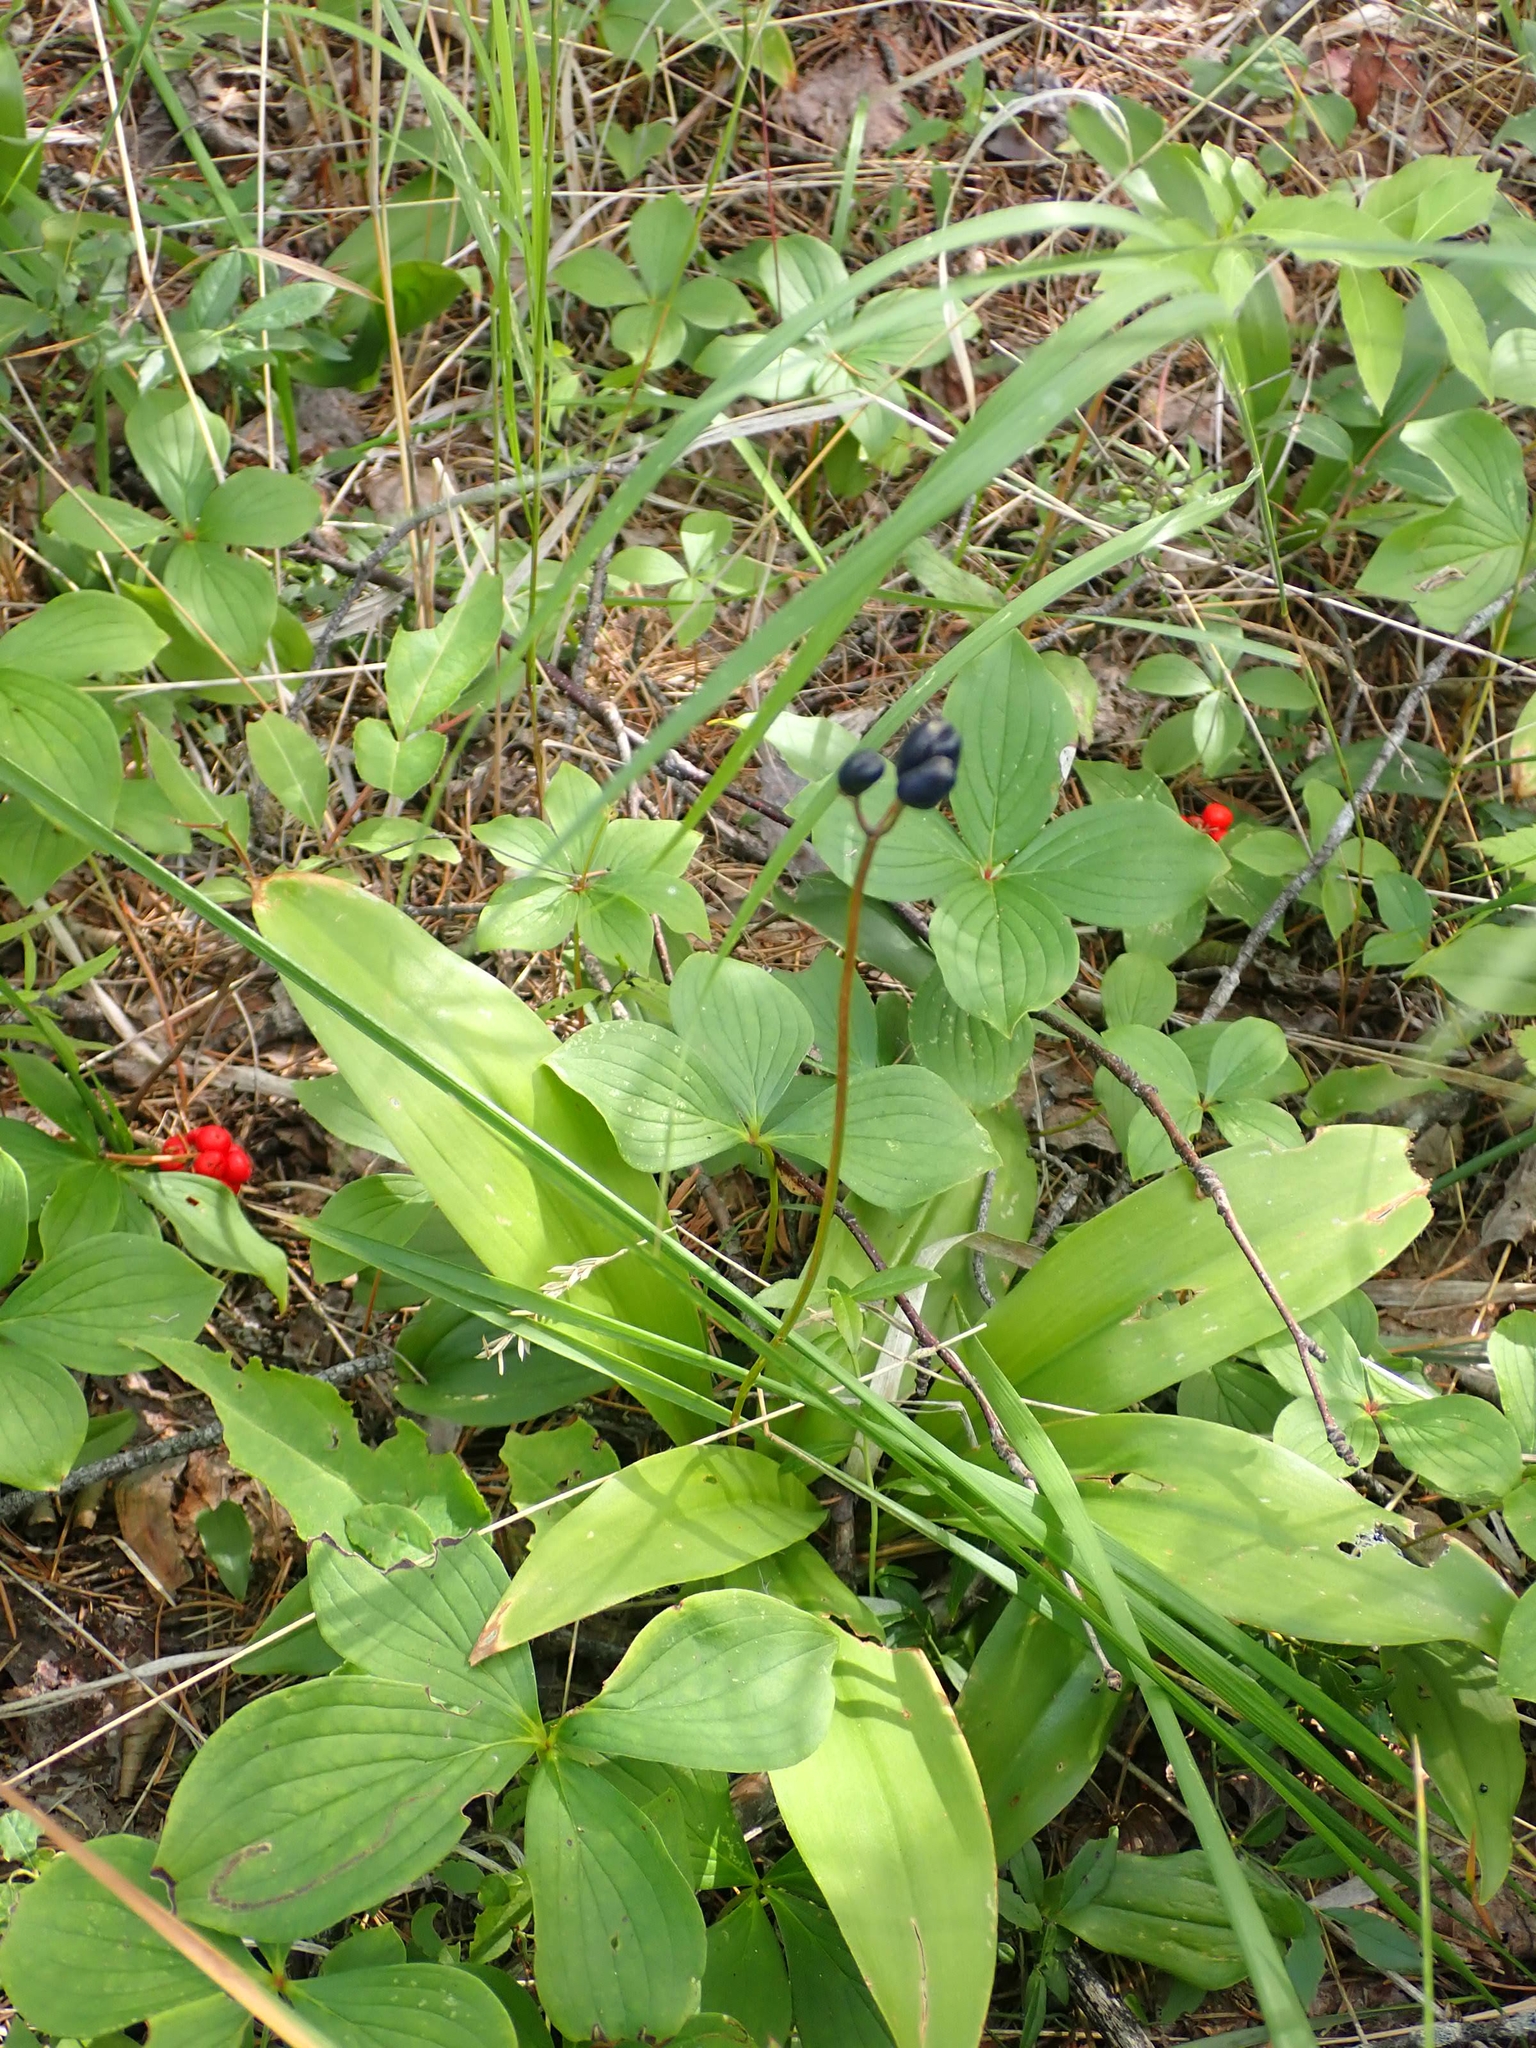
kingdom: Plantae
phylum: Tracheophyta
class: Liliopsida
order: Liliales
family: Liliaceae
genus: Clintonia
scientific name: Clintonia borealis
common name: Yellow clintonia
